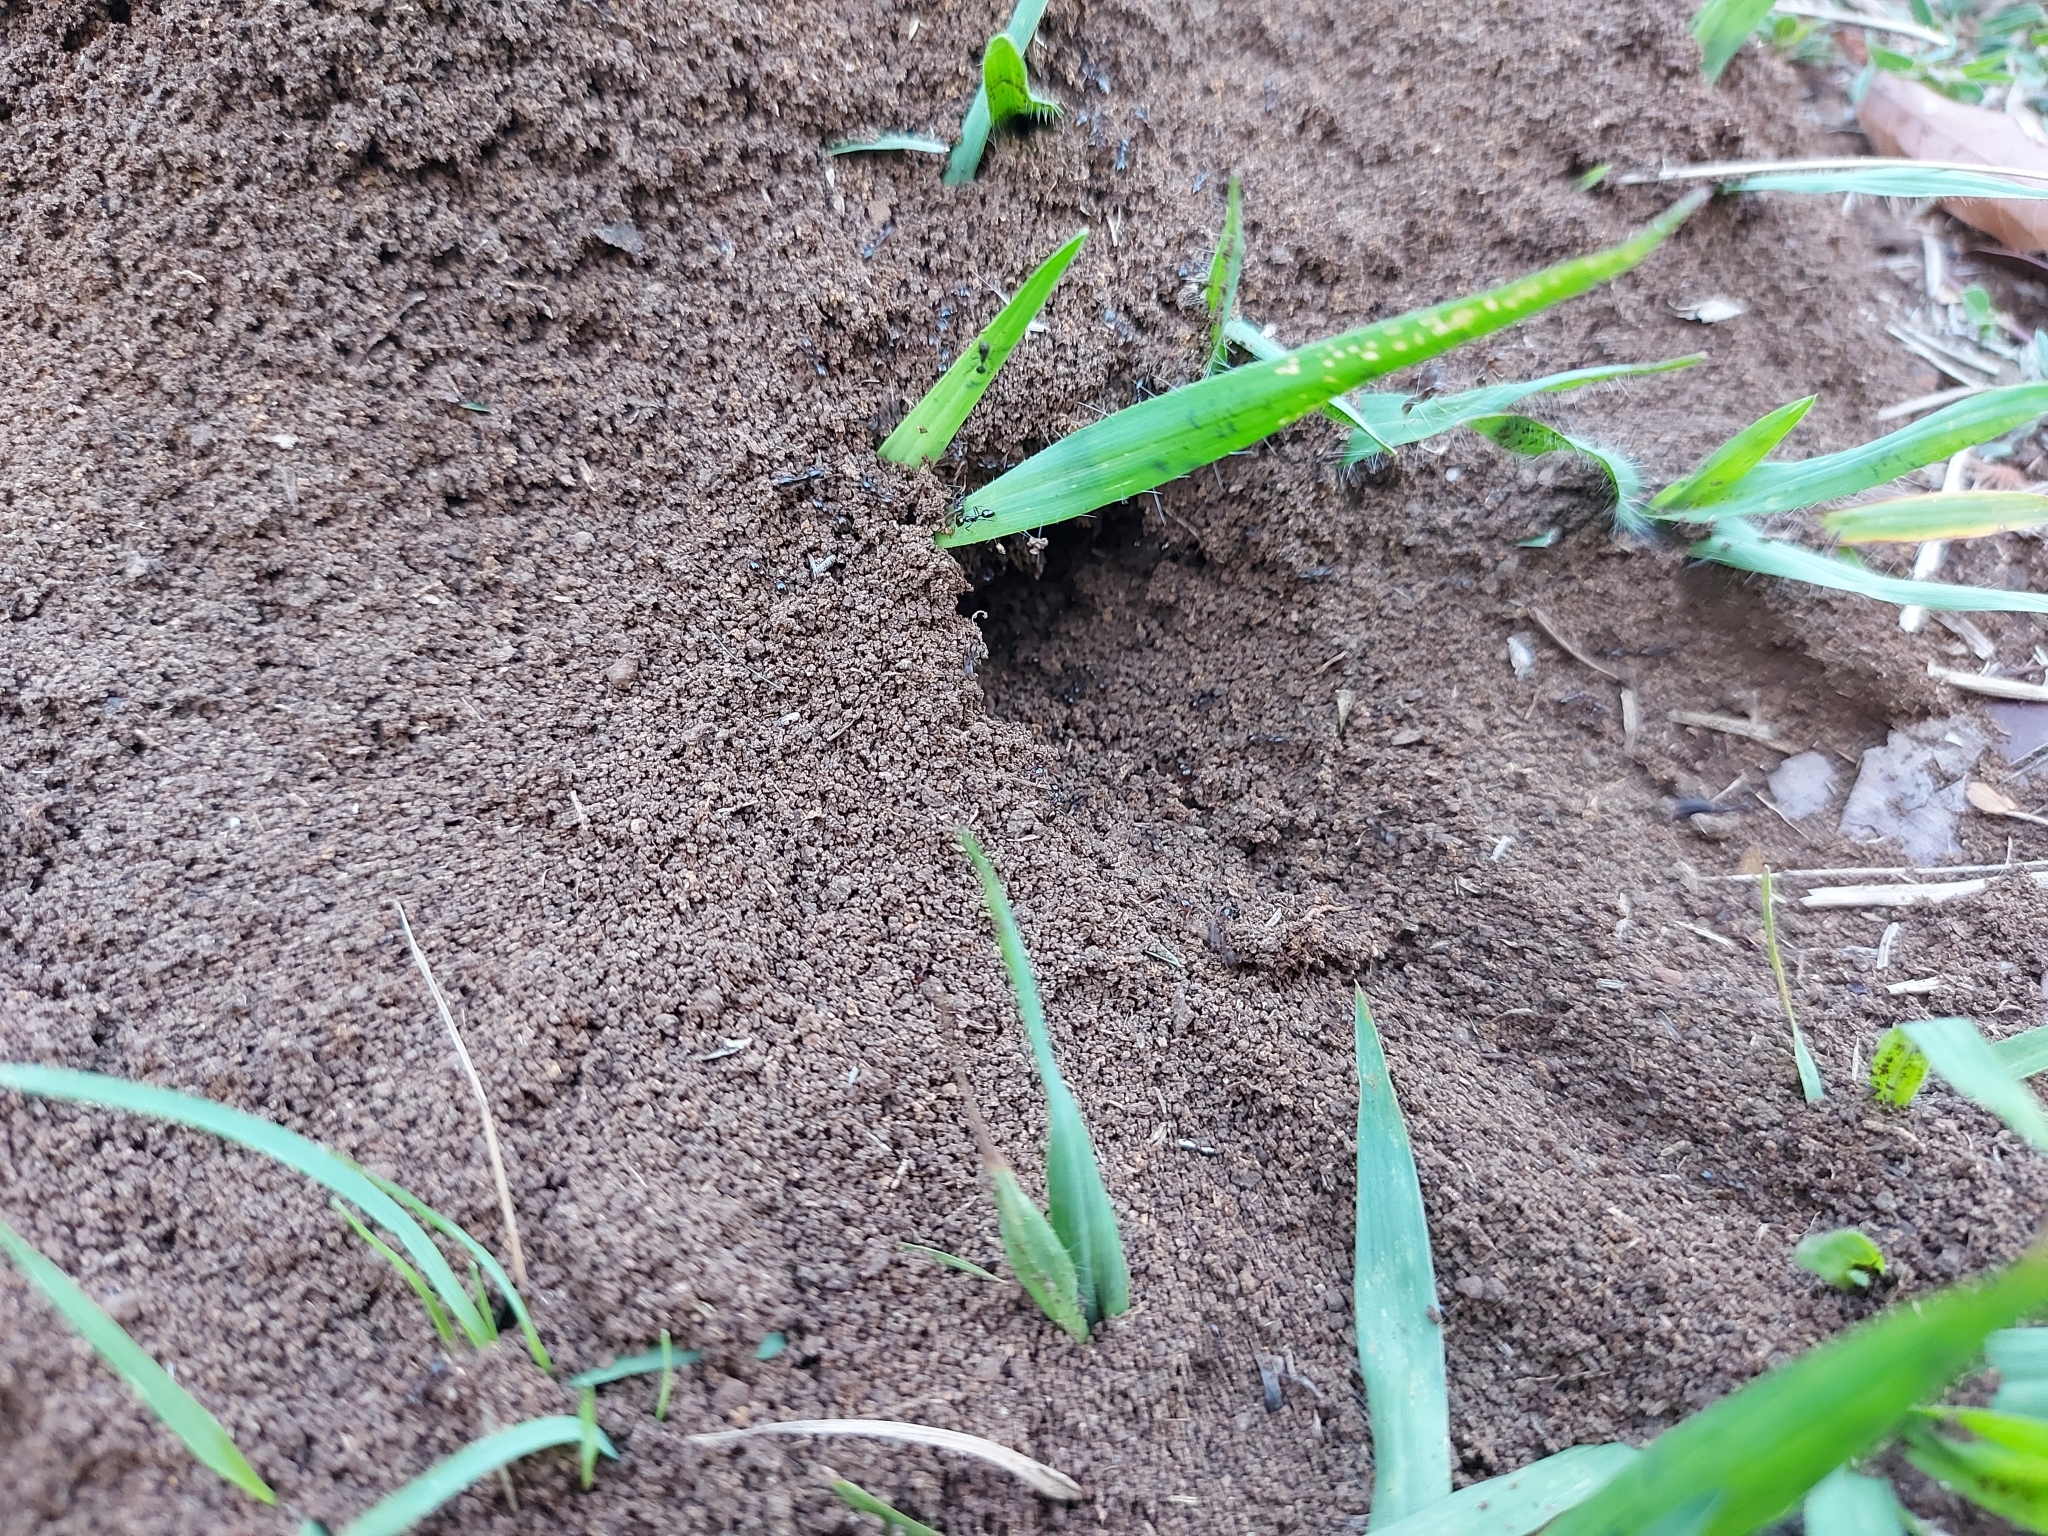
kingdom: Animalia
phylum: Arthropoda
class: Insecta
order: Hymenoptera
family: Formicidae
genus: Solenopsis
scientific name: Solenopsis geminata
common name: Tropical fire ant
